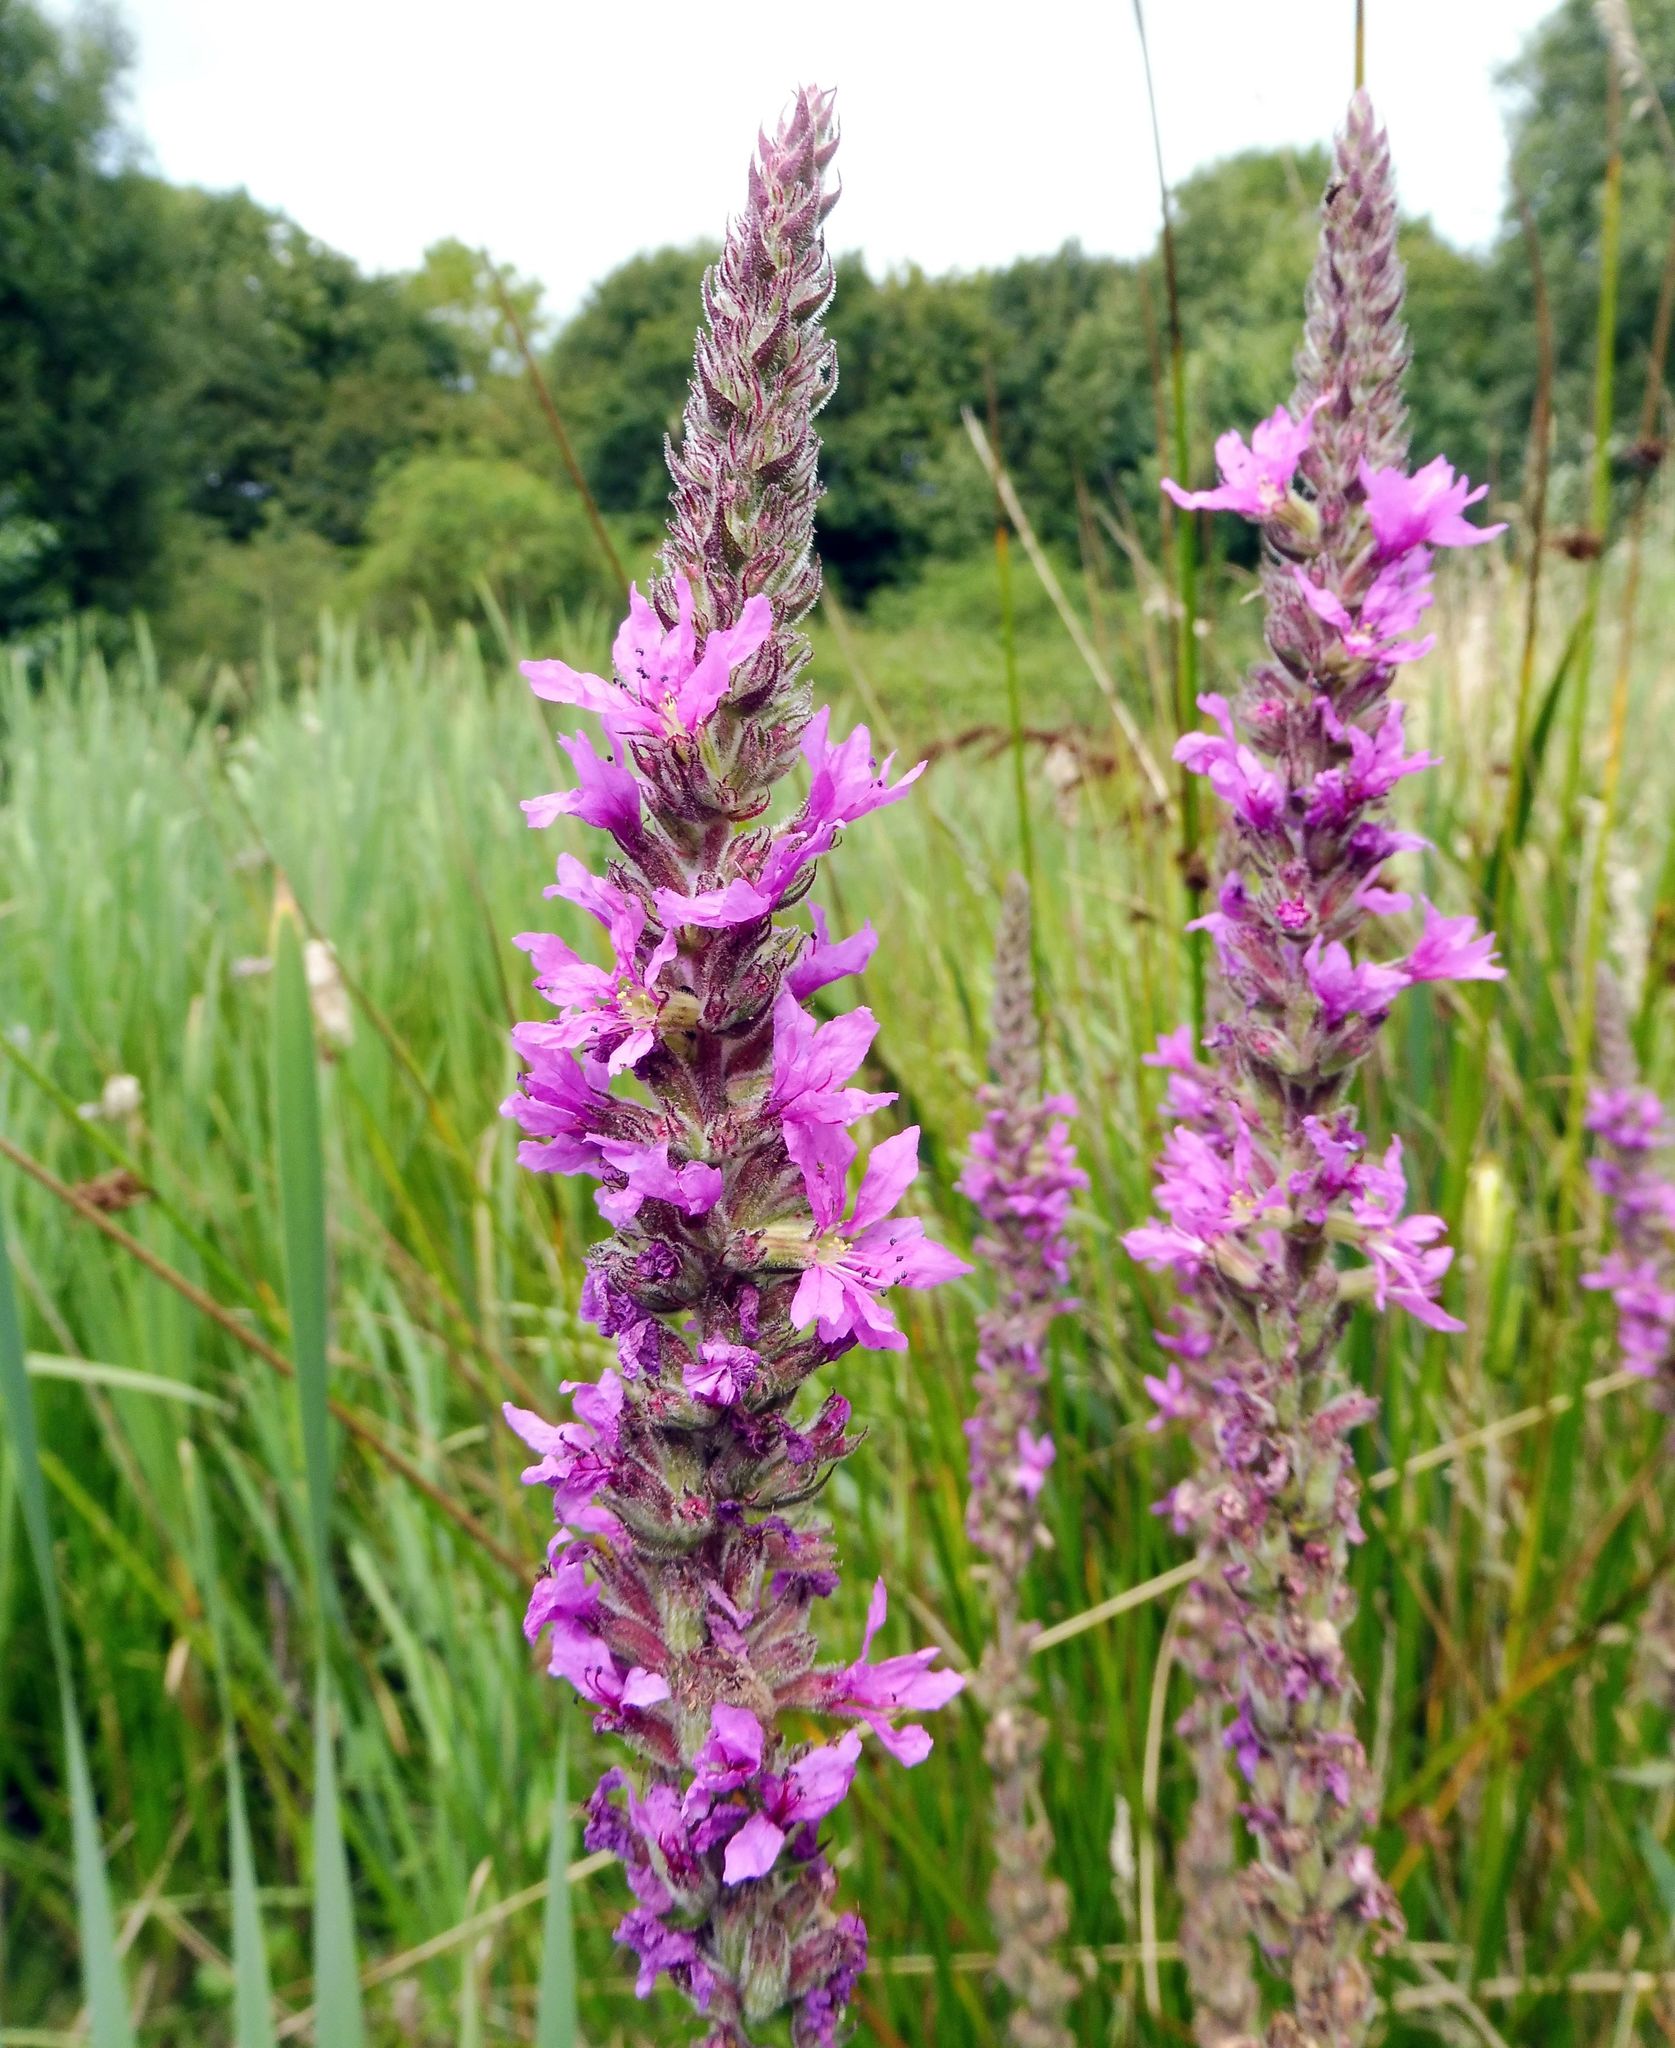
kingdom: Plantae
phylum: Tracheophyta
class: Magnoliopsida
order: Myrtales
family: Lythraceae
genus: Lythrum
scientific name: Lythrum salicaria
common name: Purple loosestrife
